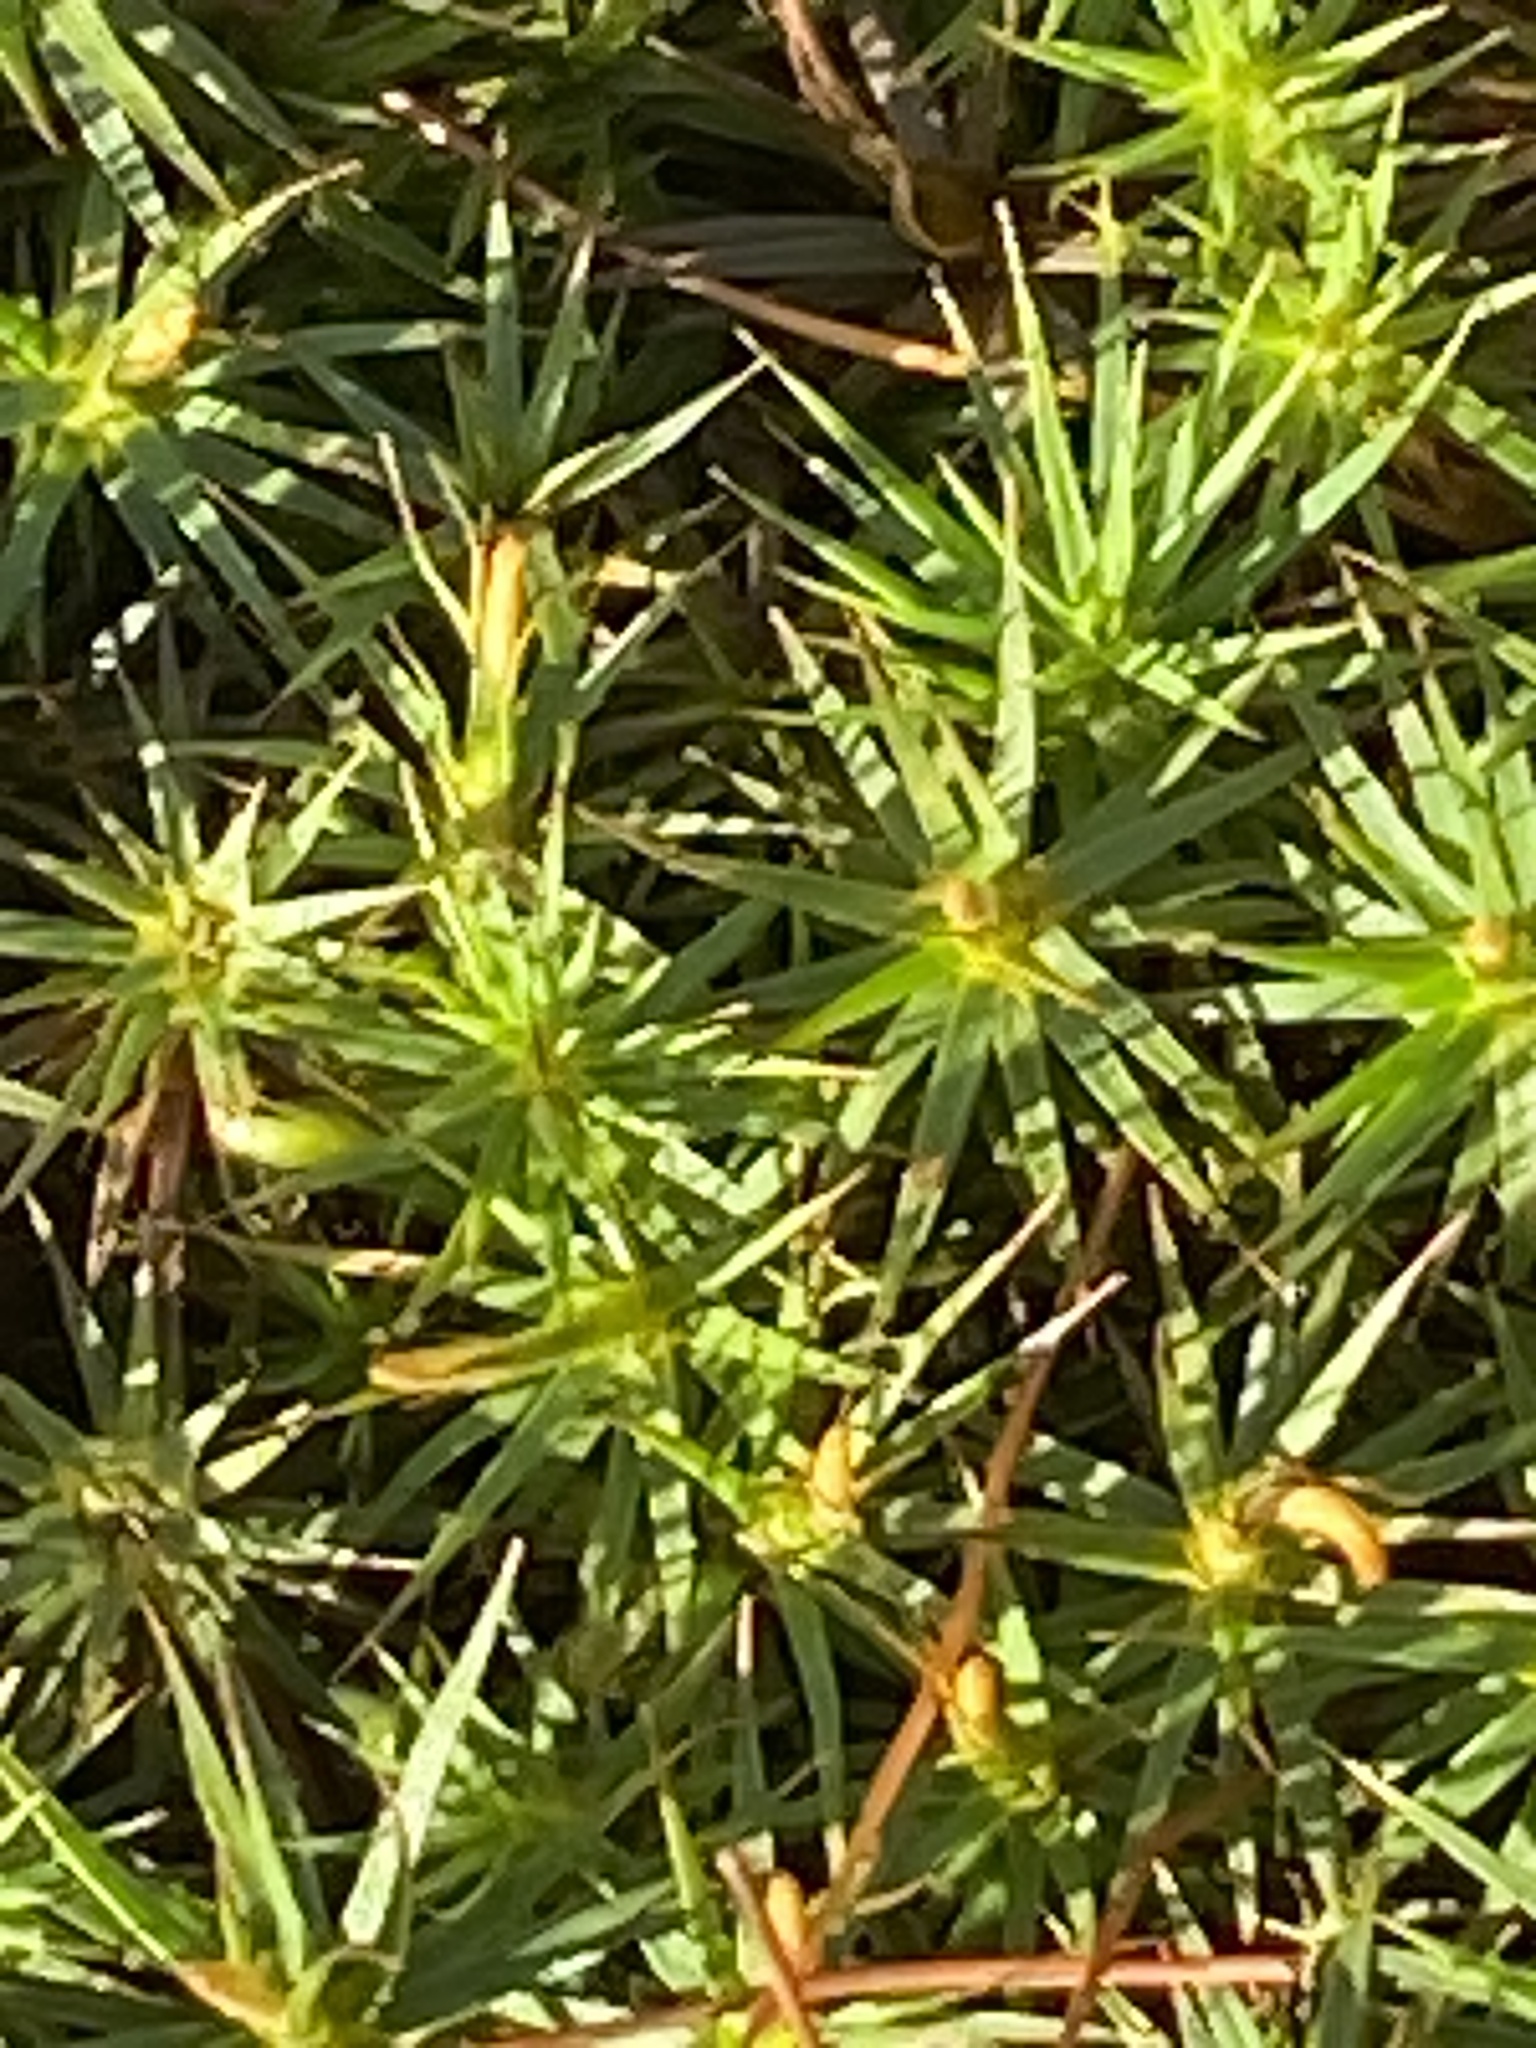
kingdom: Plantae
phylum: Bryophyta
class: Polytrichopsida
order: Polytrichales
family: Polytrichaceae
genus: Polytrichum
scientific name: Polytrichum commune
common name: Common haircap
